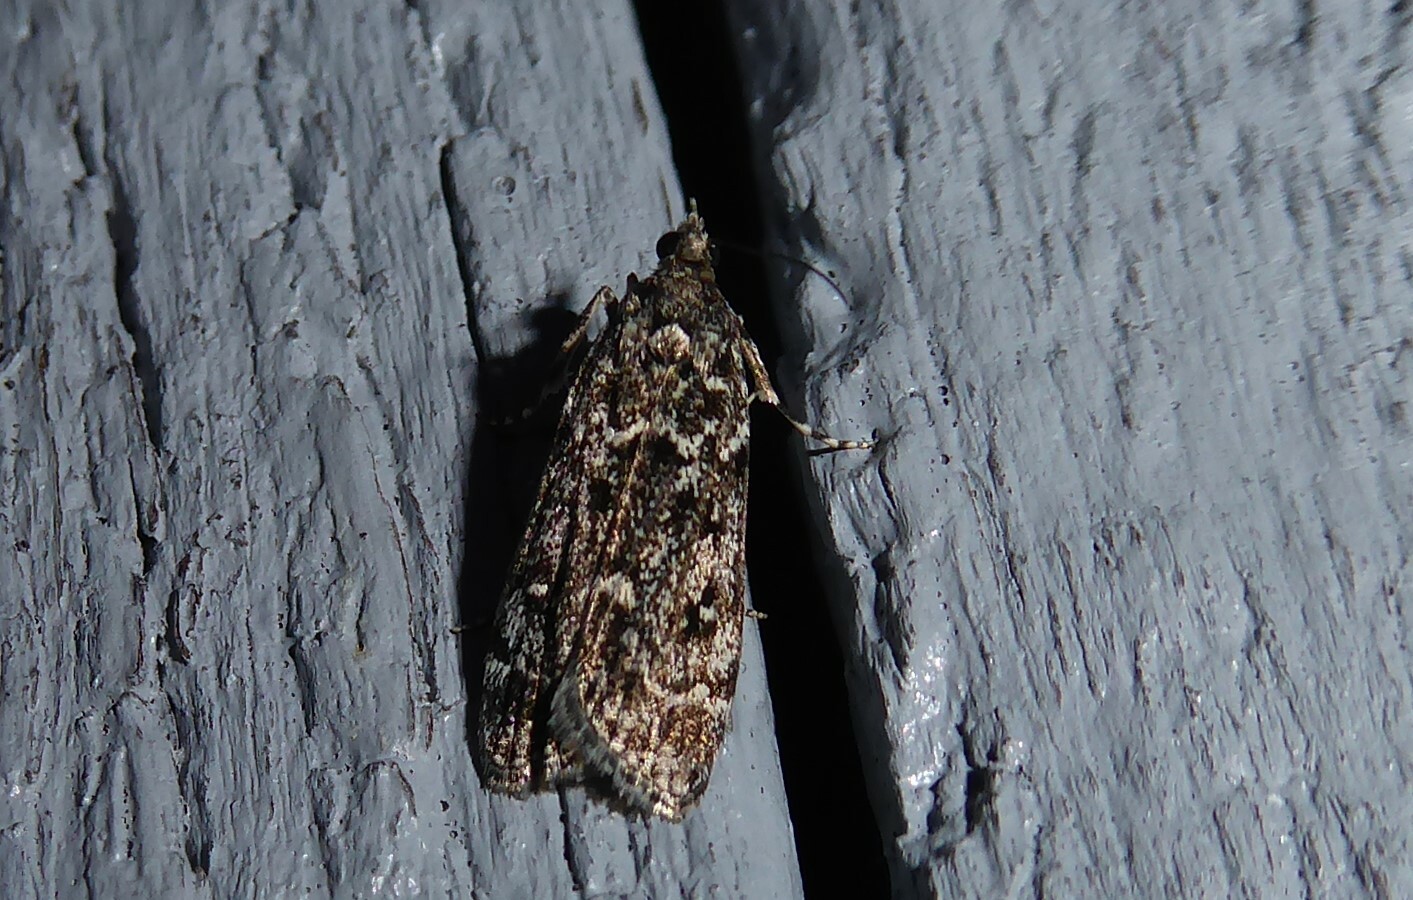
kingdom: Animalia
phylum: Arthropoda
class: Insecta
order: Lepidoptera
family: Crambidae
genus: Eudonia
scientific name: Eudonia philerga
